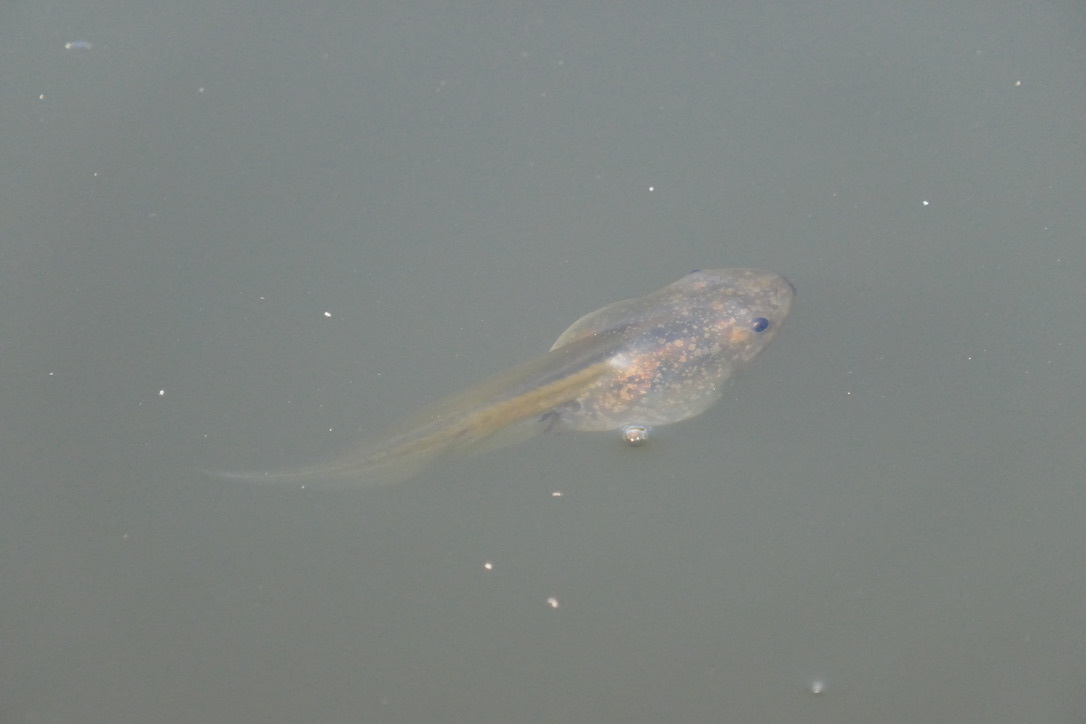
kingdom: Animalia
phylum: Chordata
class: Amphibia
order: Anura
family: Pelobatidae
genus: Pelobates
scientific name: Pelobates fuscus
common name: Common eurasian spadefoot toad
